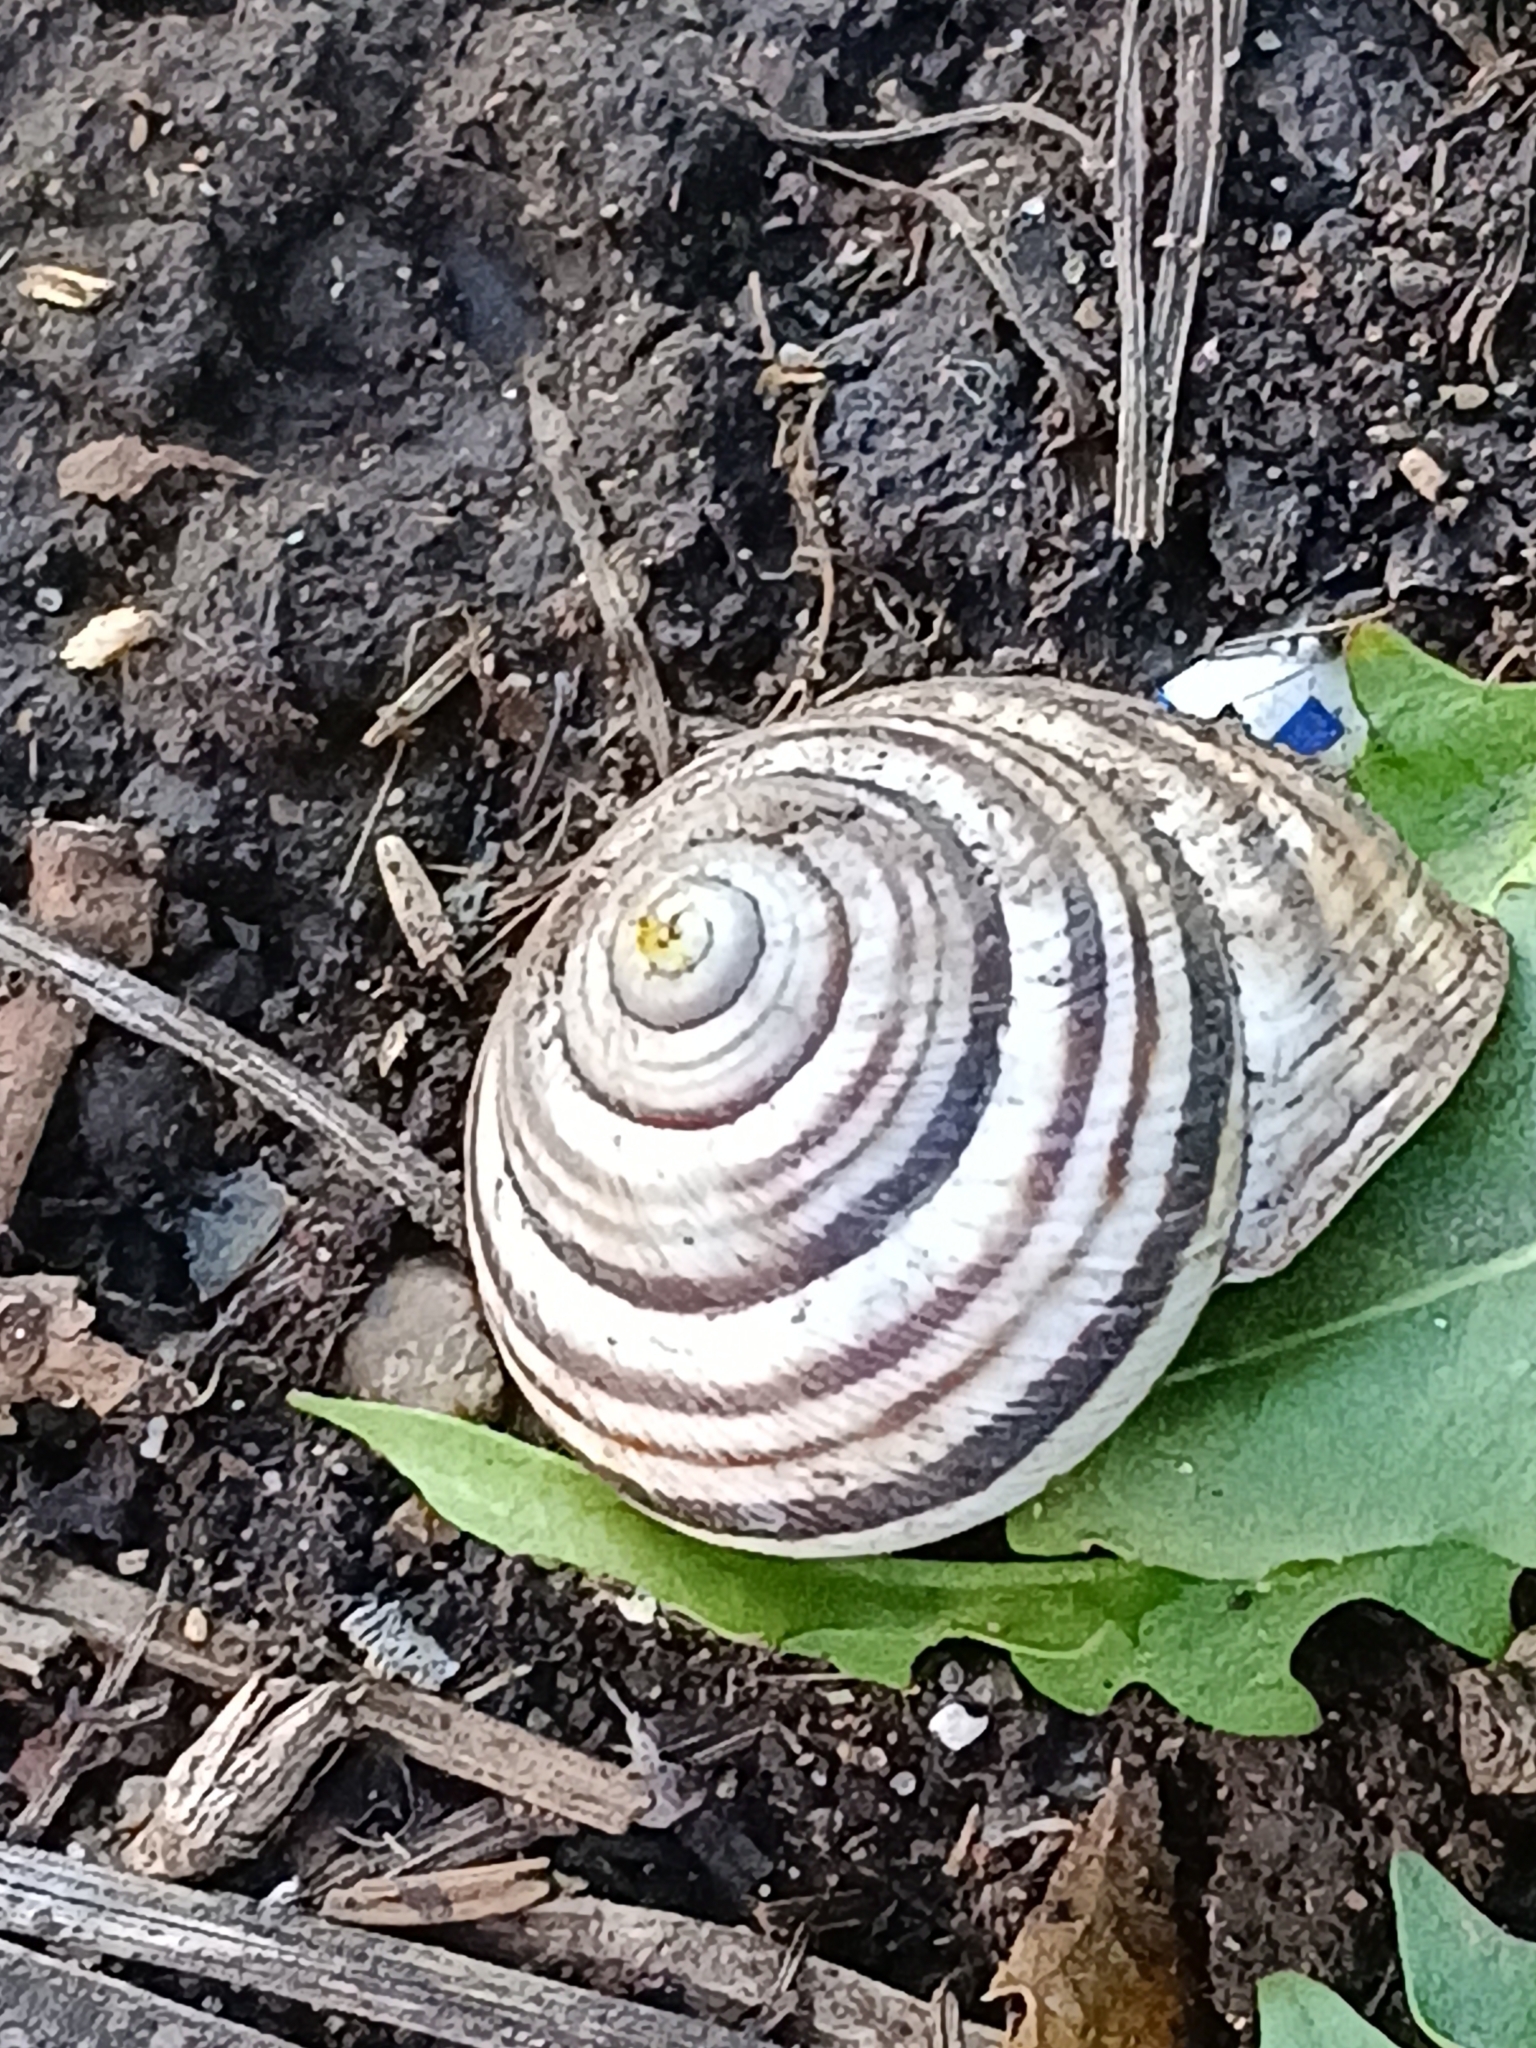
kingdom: Animalia
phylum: Mollusca
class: Gastropoda
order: Stylommatophora
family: Helicidae
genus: Caucasotachea
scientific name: Caucasotachea vindobonensis
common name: European helicid land snail
